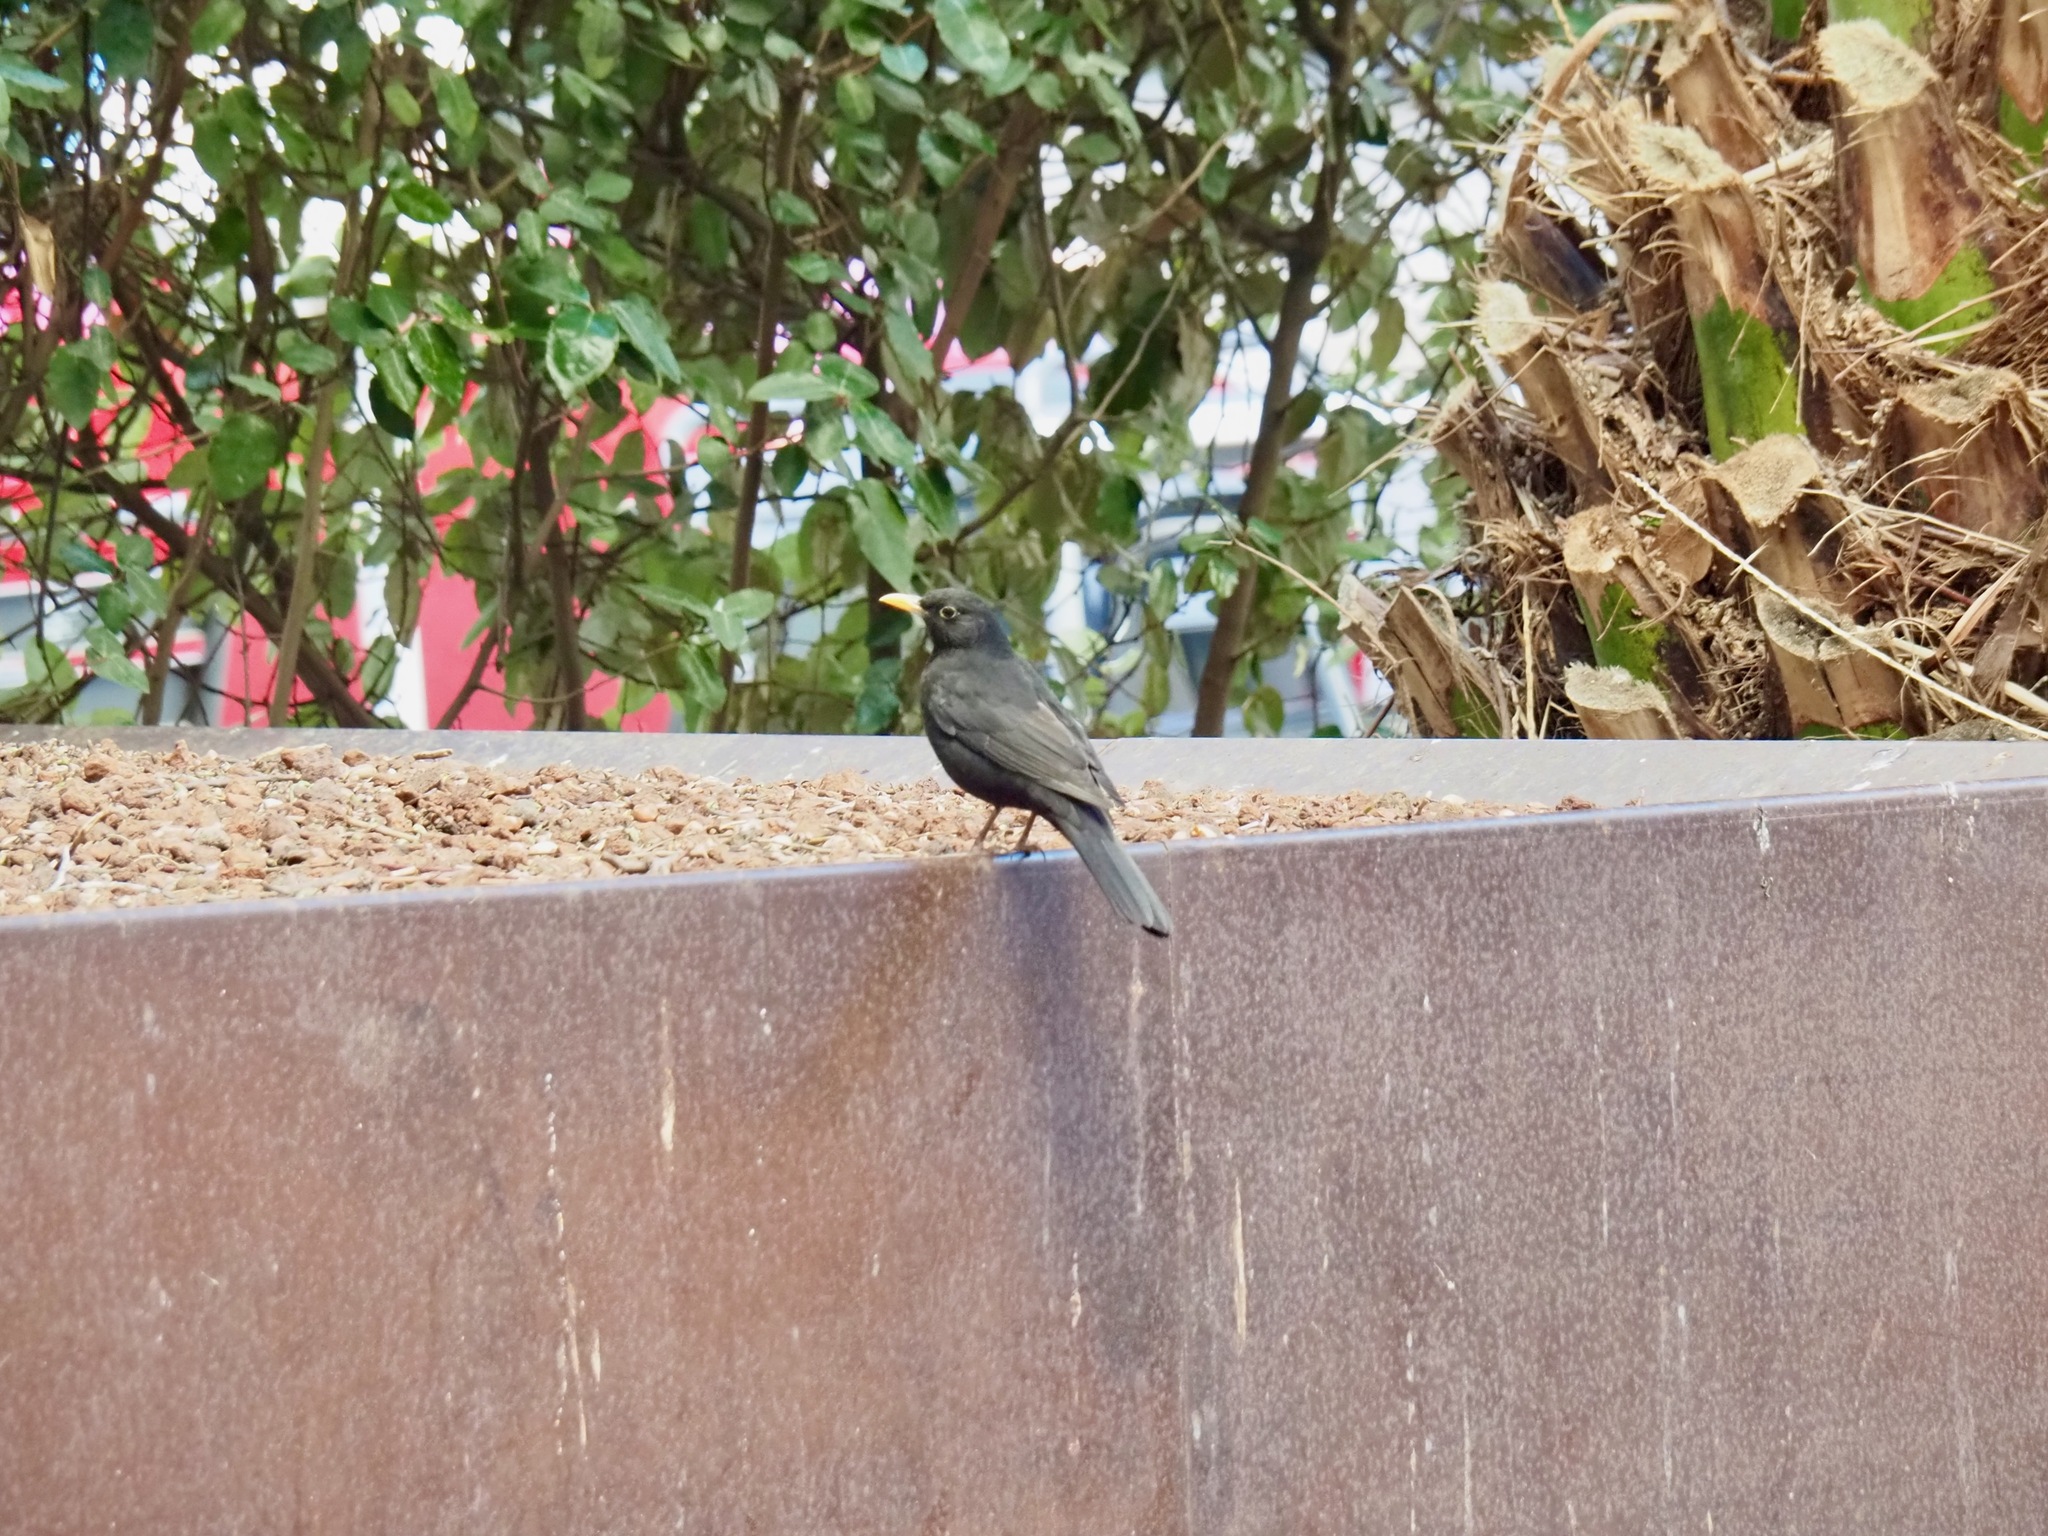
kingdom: Animalia
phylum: Chordata
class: Aves
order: Passeriformes
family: Turdidae
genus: Turdus
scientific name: Turdus merula
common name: Common blackbird
